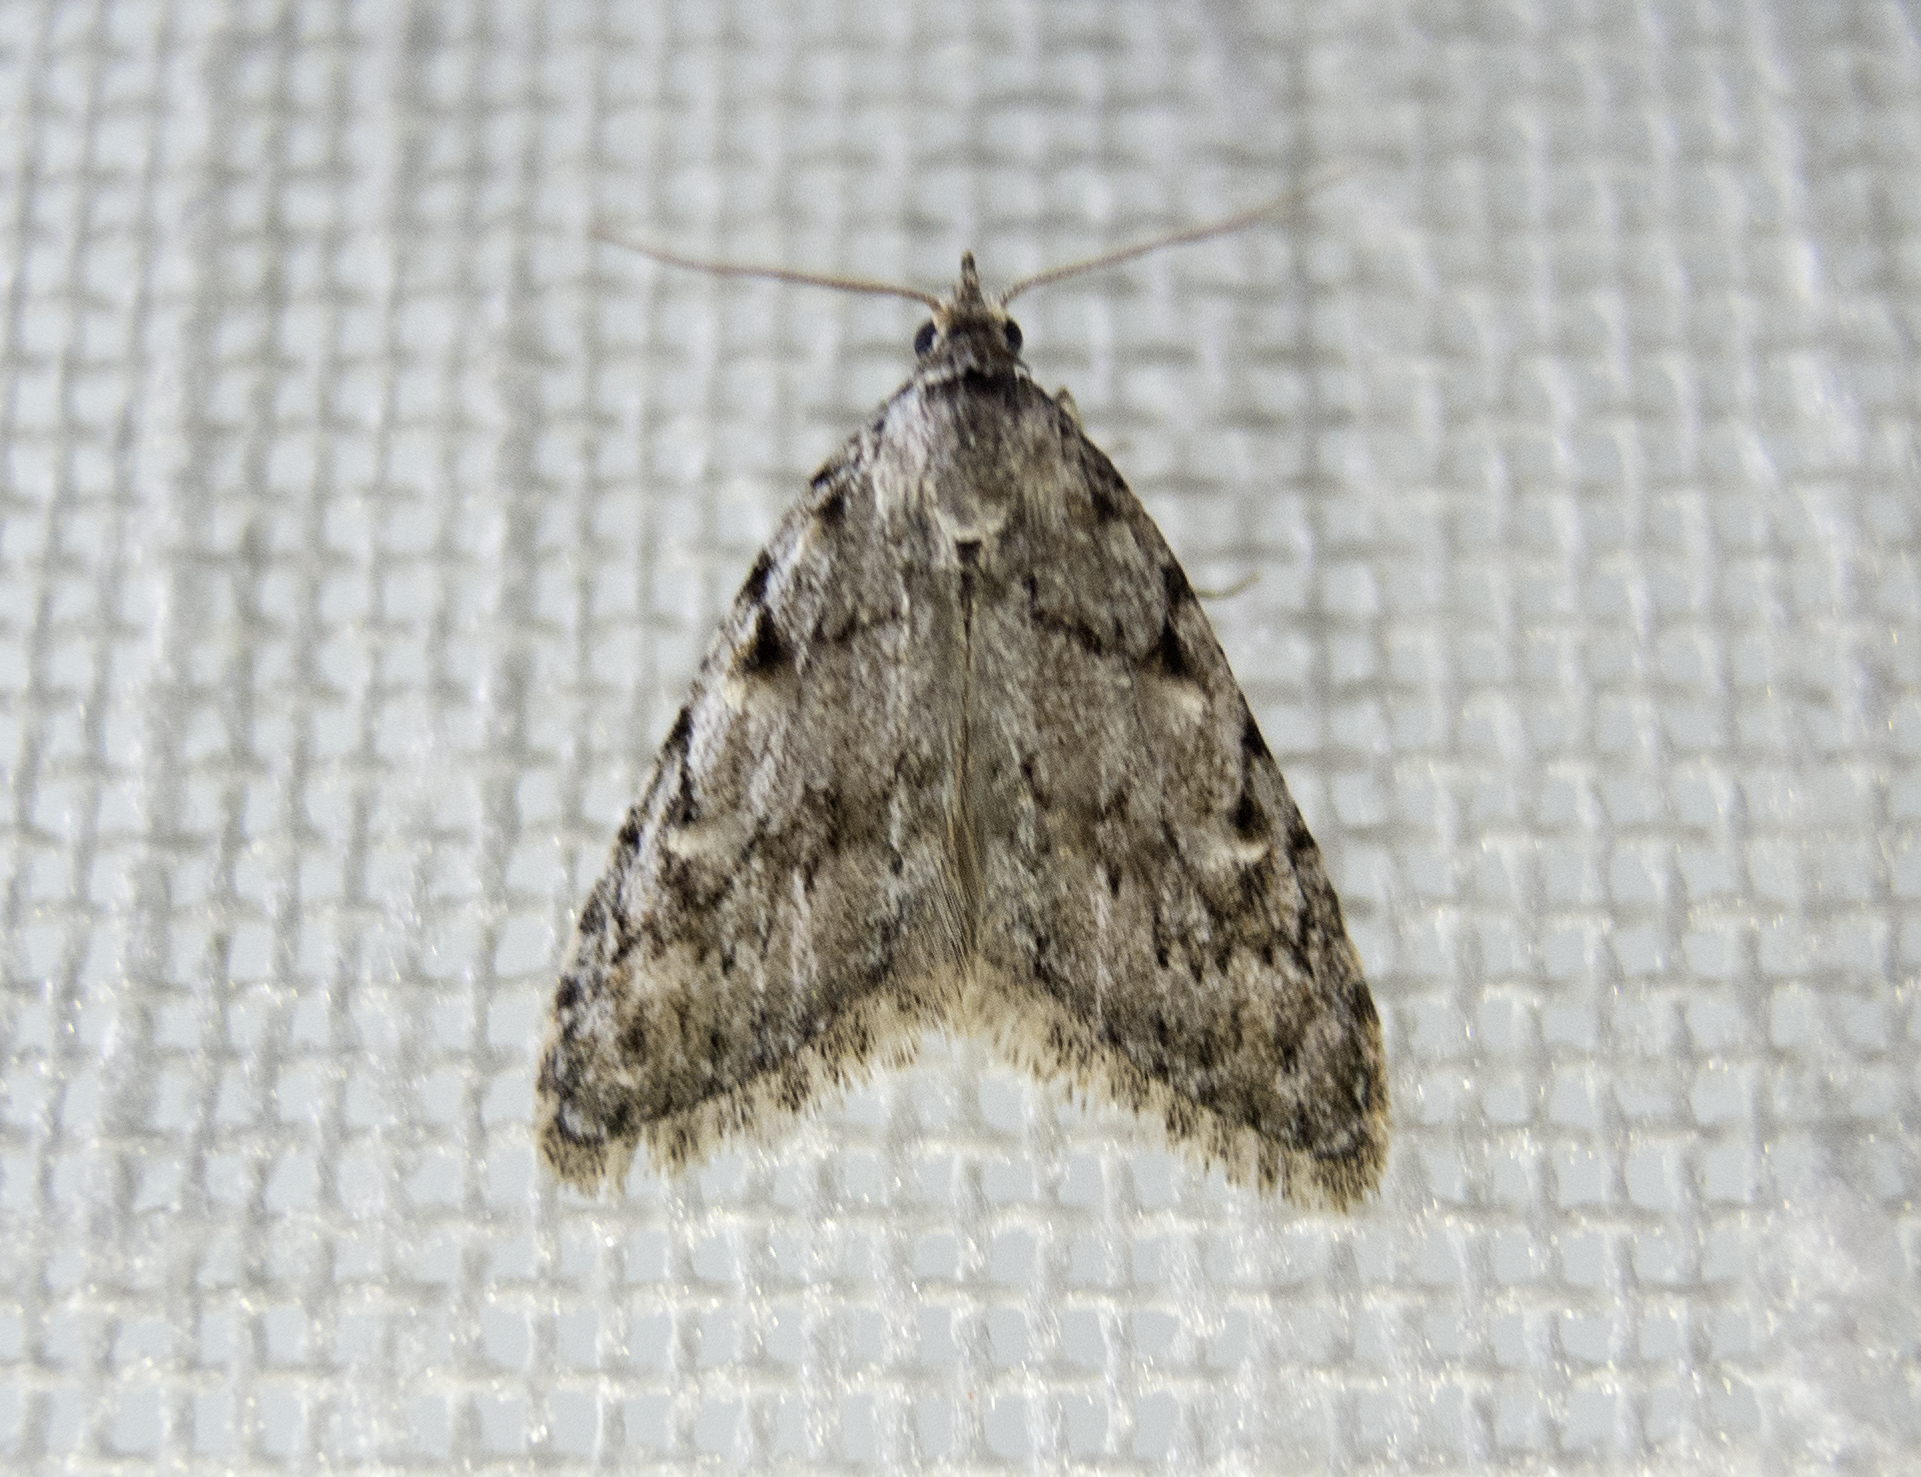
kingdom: Animalia
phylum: Arthropoda
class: Insecta
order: Lepidoptera
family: Nolidae
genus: Nola
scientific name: Nola cicatricalis
